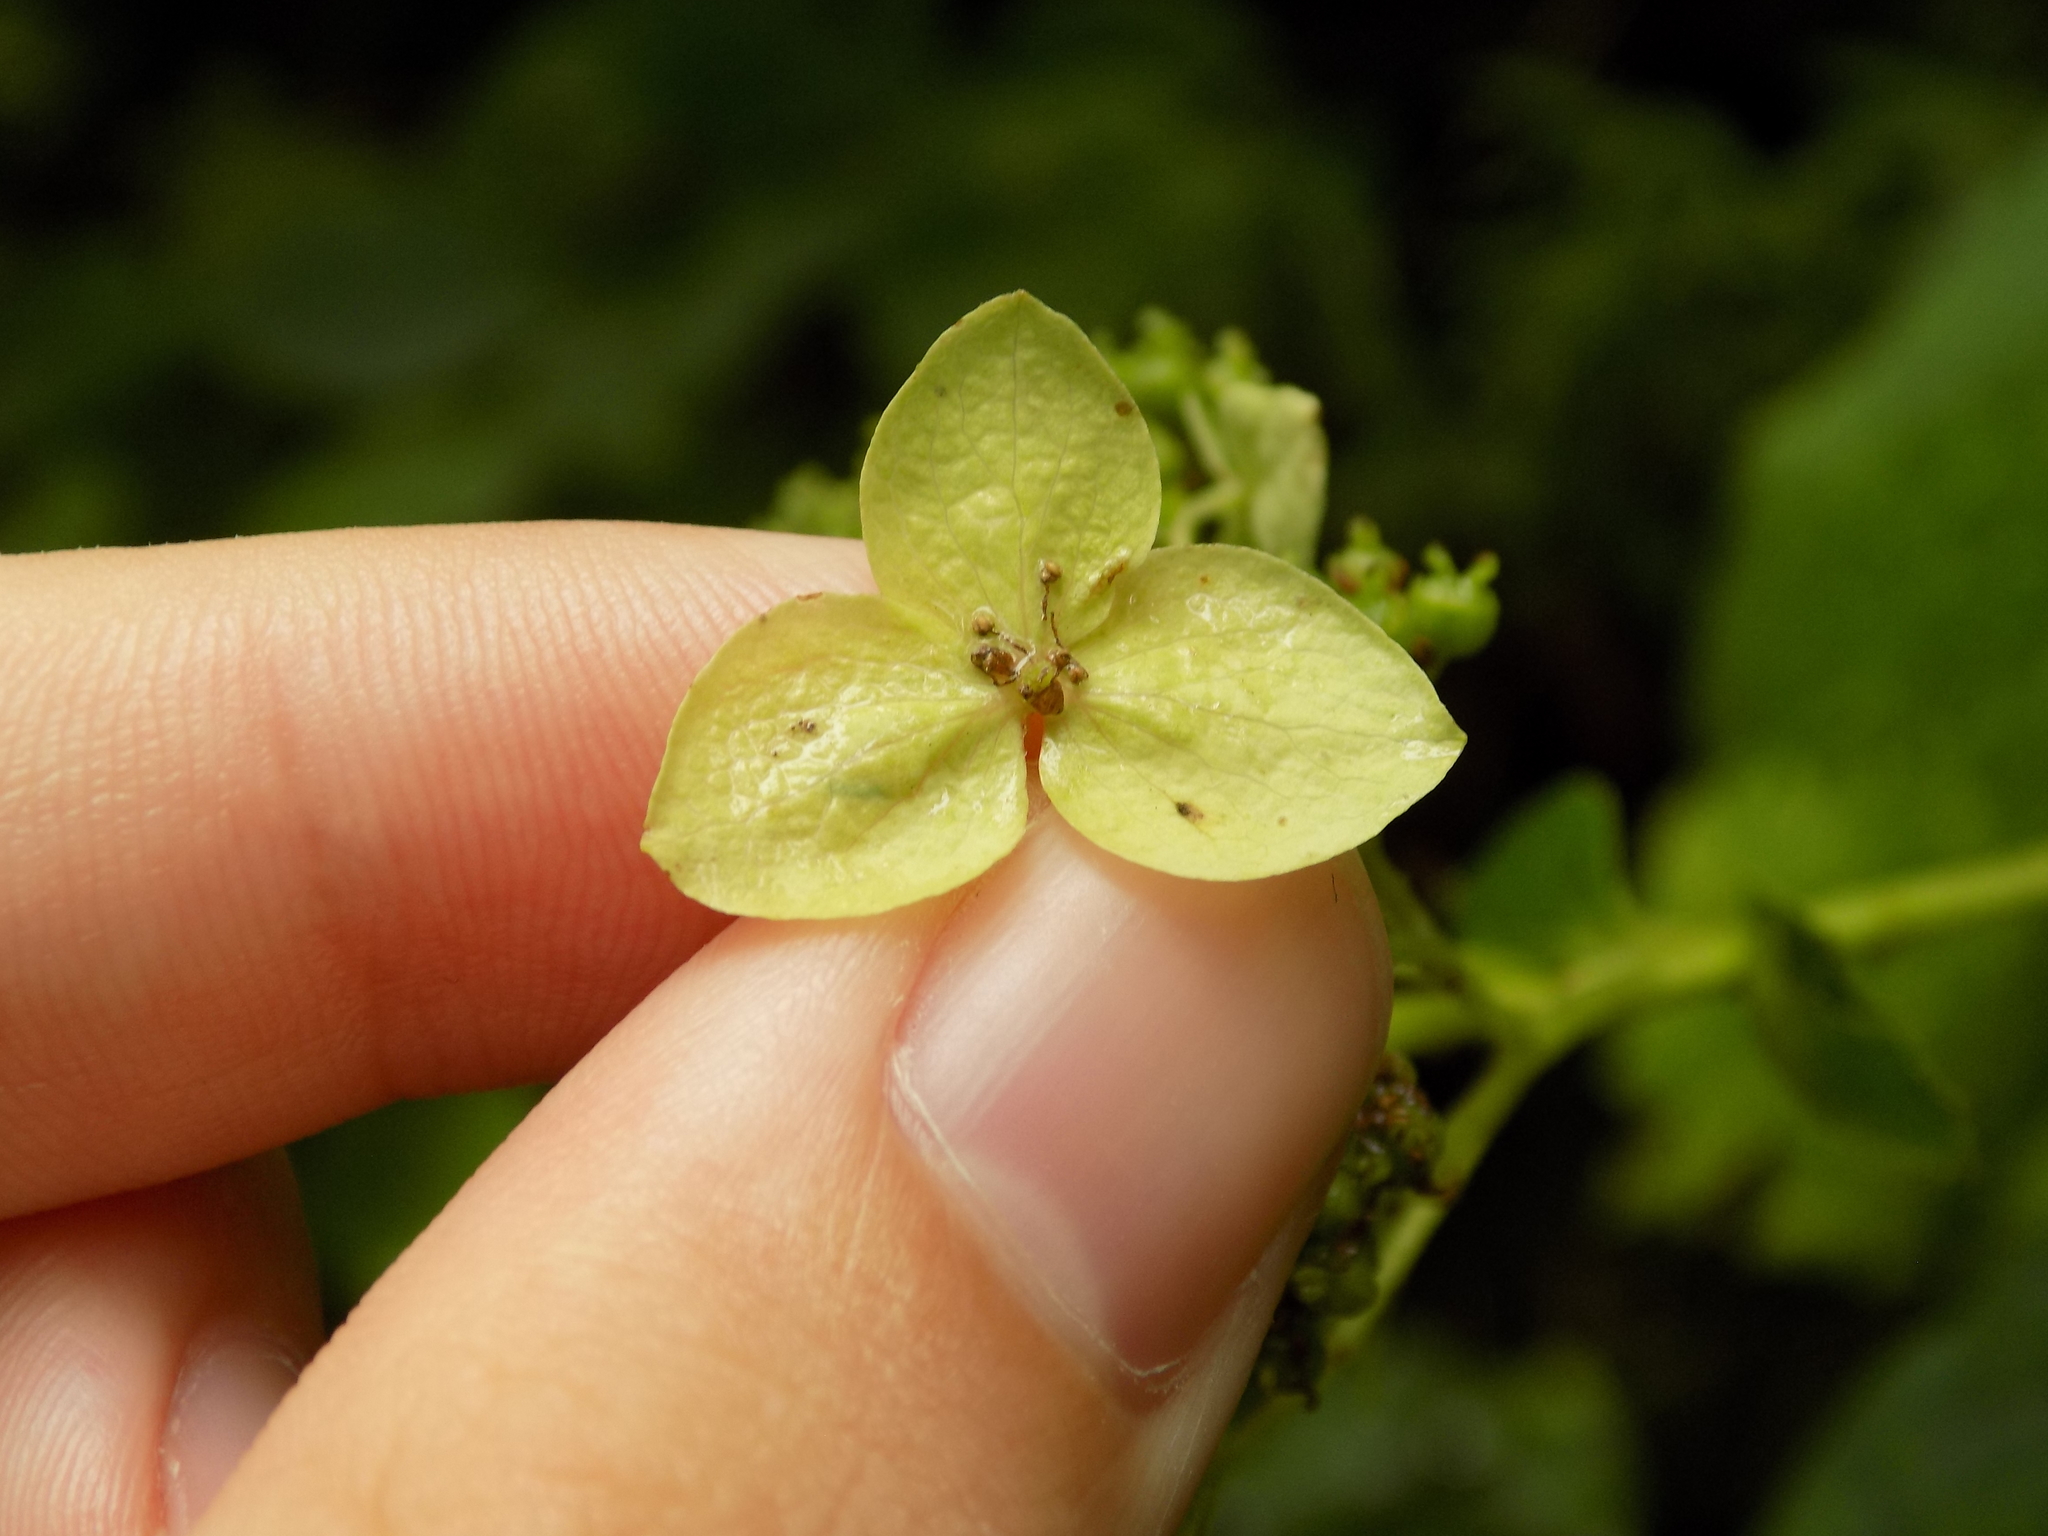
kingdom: Plantae
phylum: Tracheophyta
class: Magnoliopsida
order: Cornales
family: Hydrangeaceae
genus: Hydrangea
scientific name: Hydrangea arborescens
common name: Sevenbark
